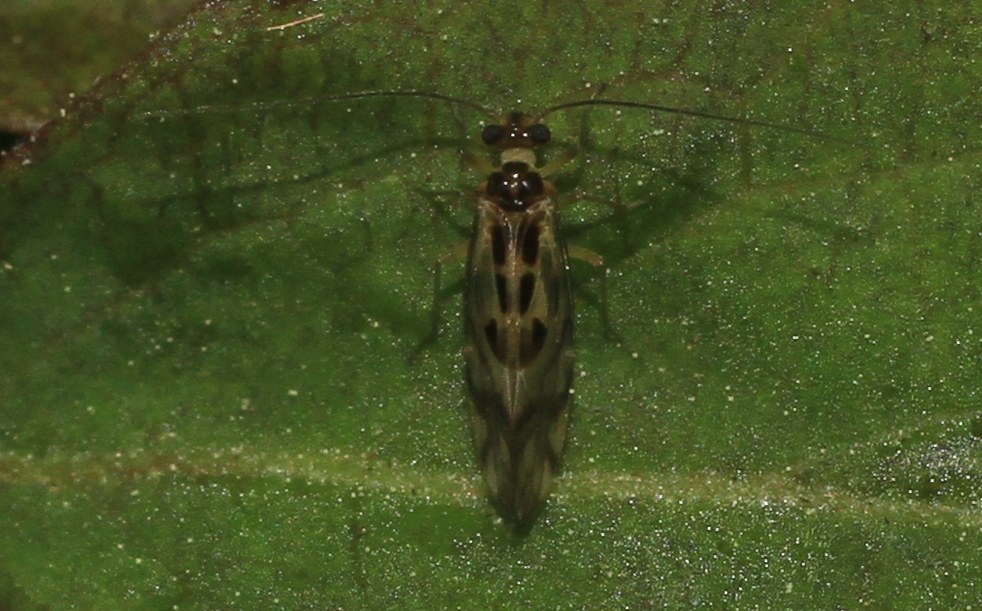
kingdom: Animalia
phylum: Arthropoda
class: Insecta
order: Psocodea
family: Stenopsocidae
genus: Graphopsocus
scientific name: Graphopsocus cruciatus
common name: Lizard bark louse
